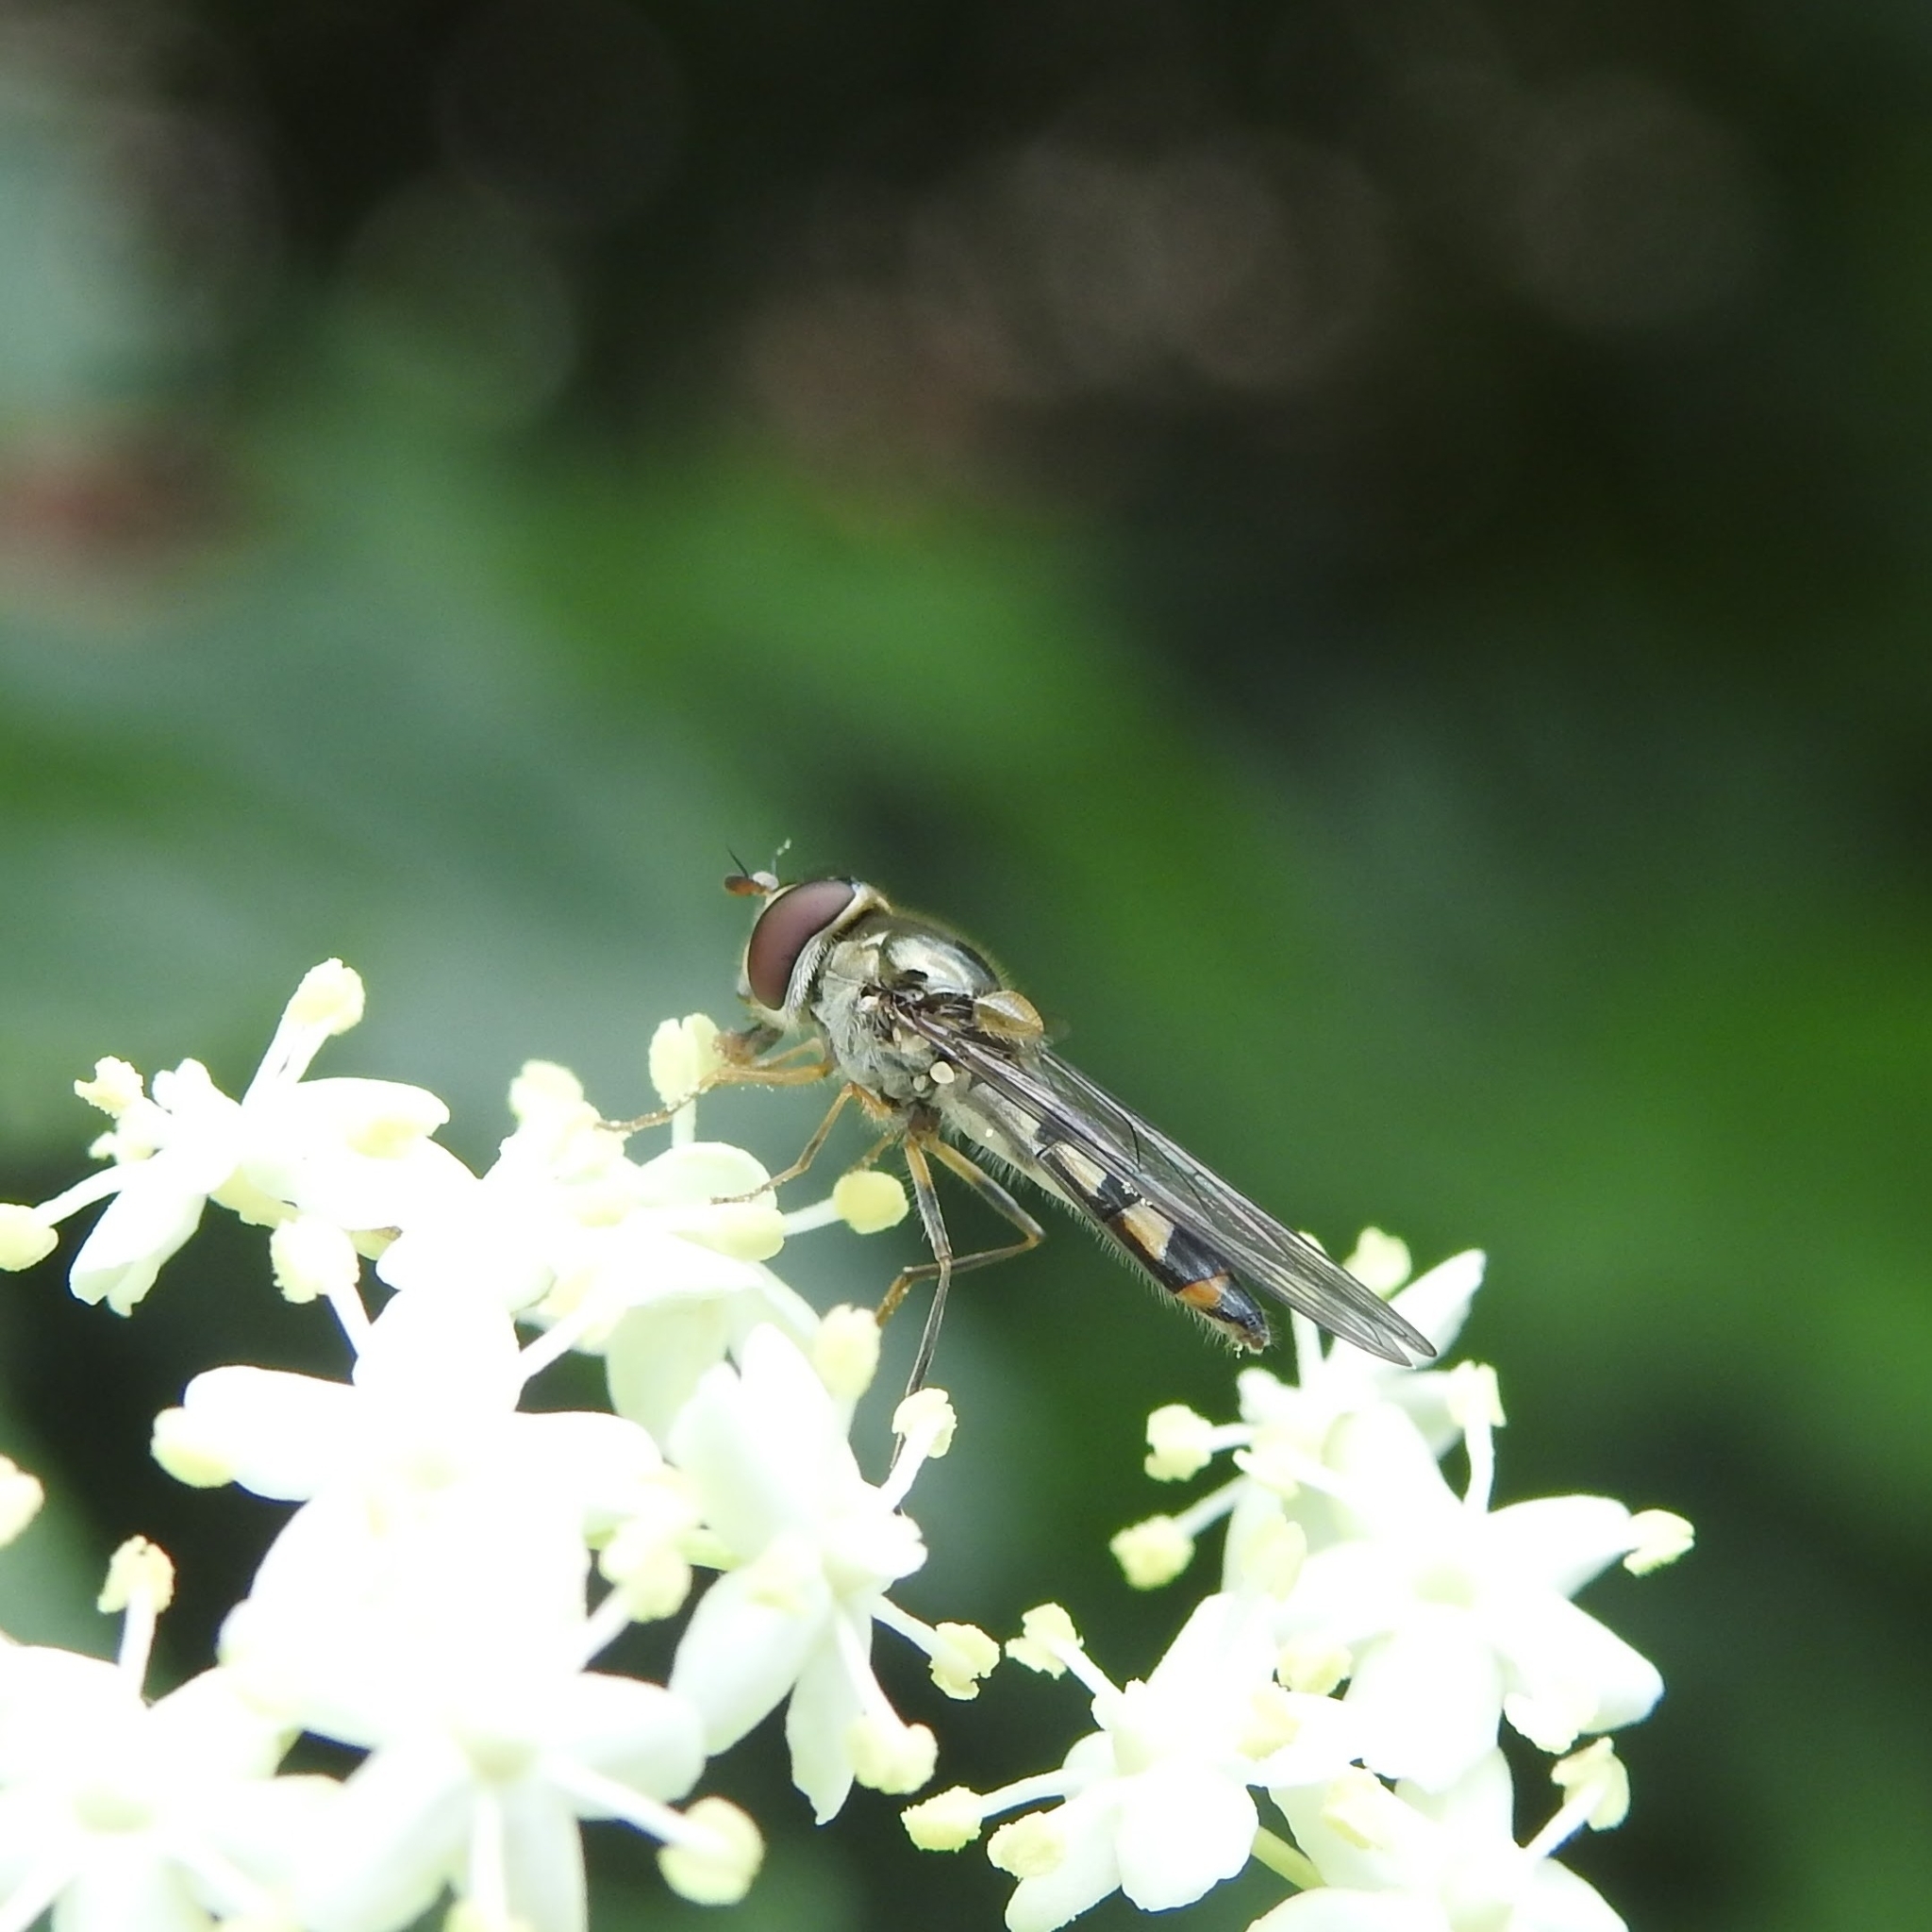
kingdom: Animalia
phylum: Arthropoda
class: Insecta
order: Diptera
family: Syrphidae
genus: Meliscaeva
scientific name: Meliscaeva auricollis
